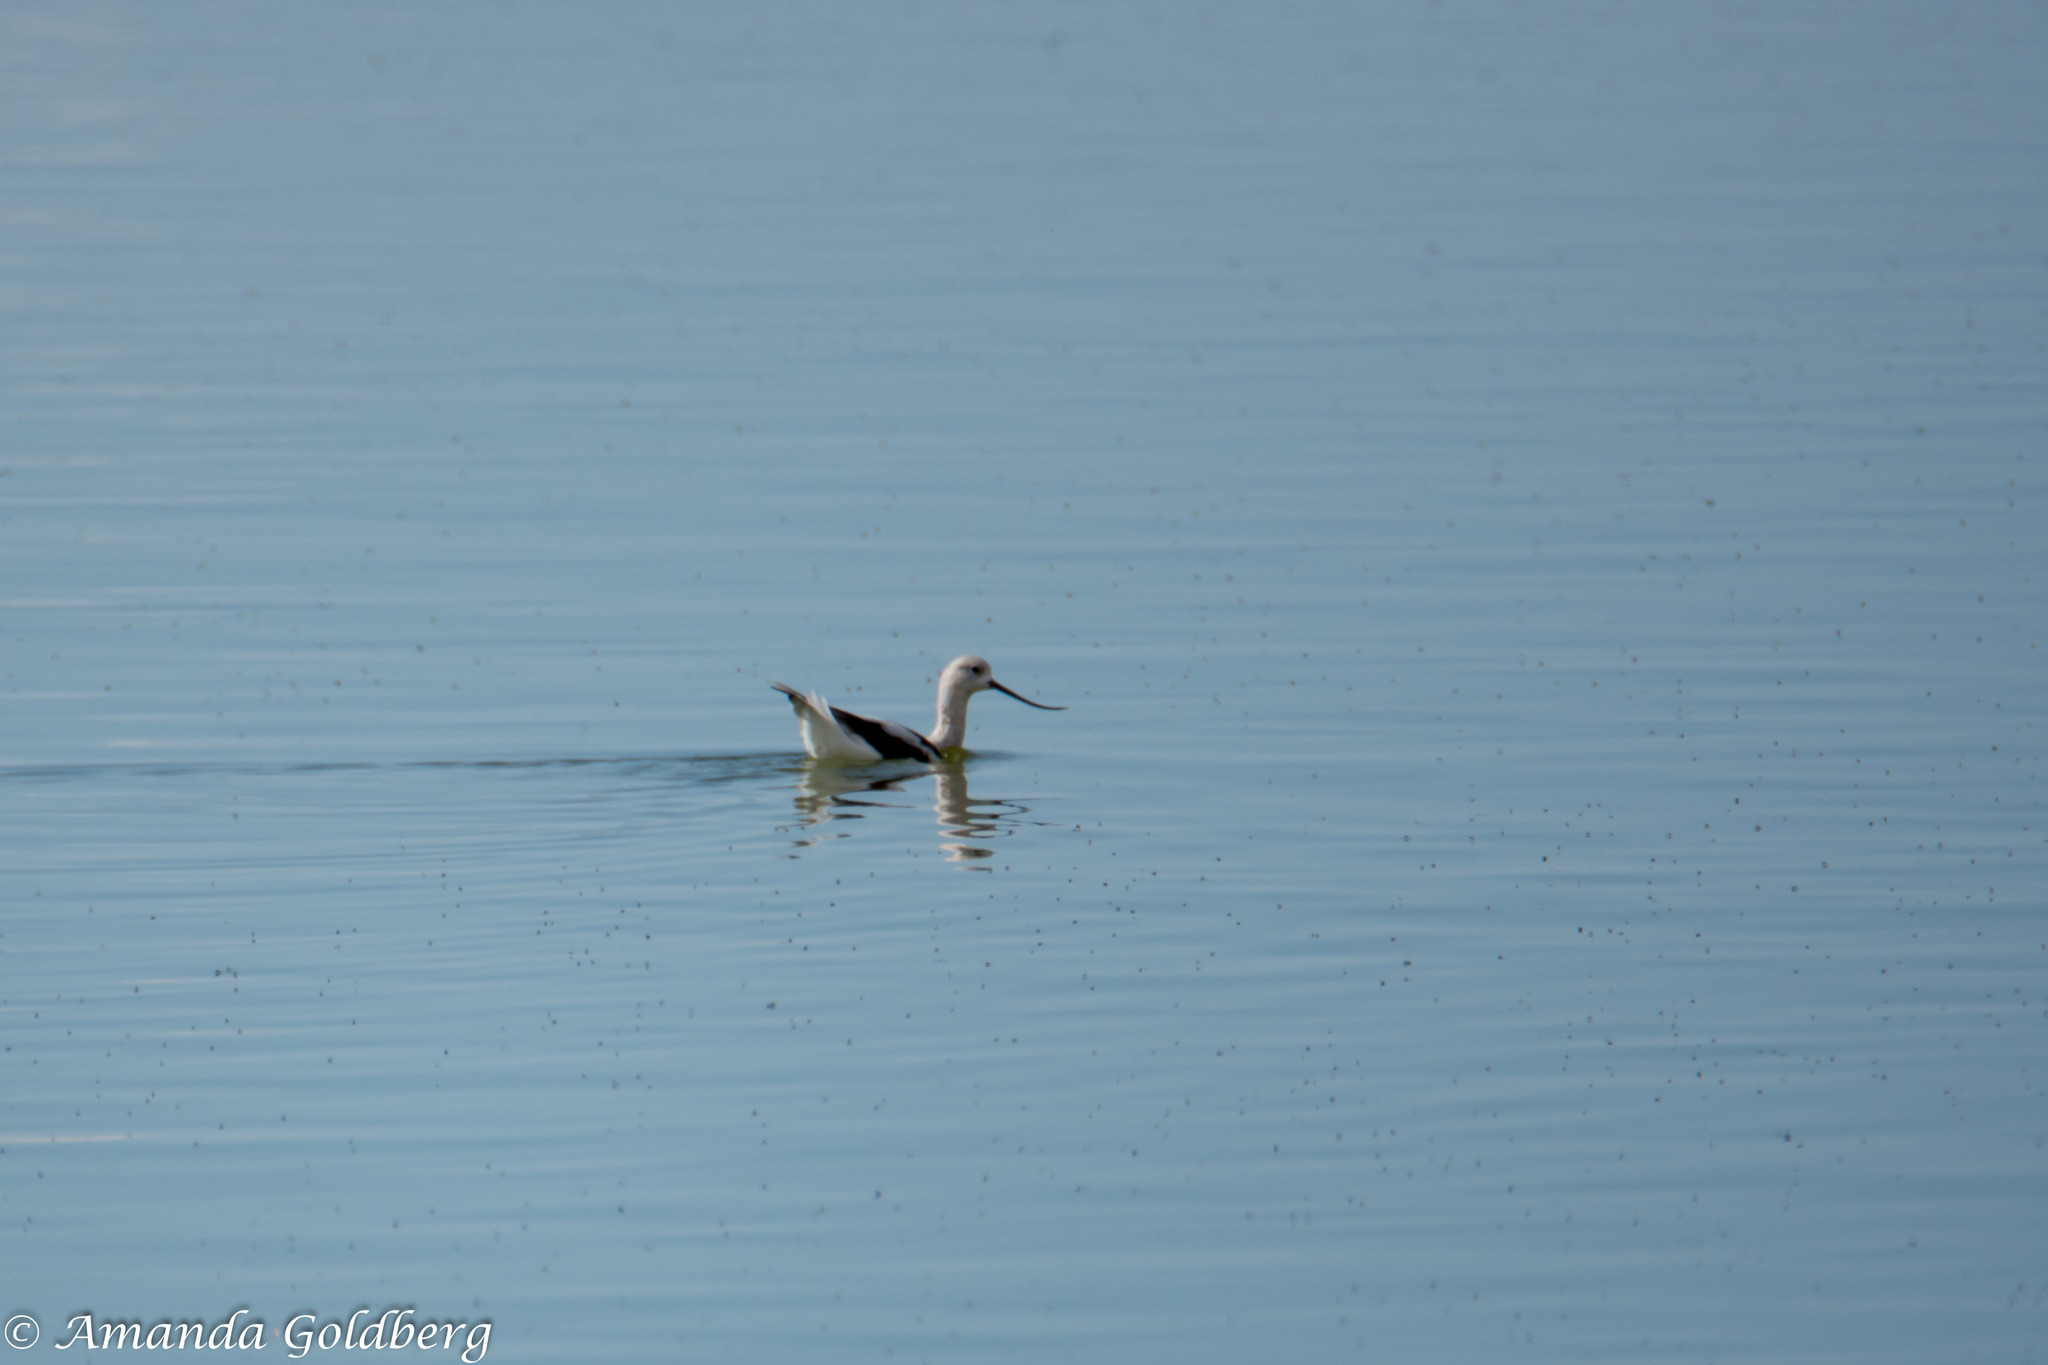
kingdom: Animalia
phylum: Chordata
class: Aves
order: Charadriiformes
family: Recurvirostridae
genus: Recurvirostra
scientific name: Recurvirostra americana
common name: American avocet
